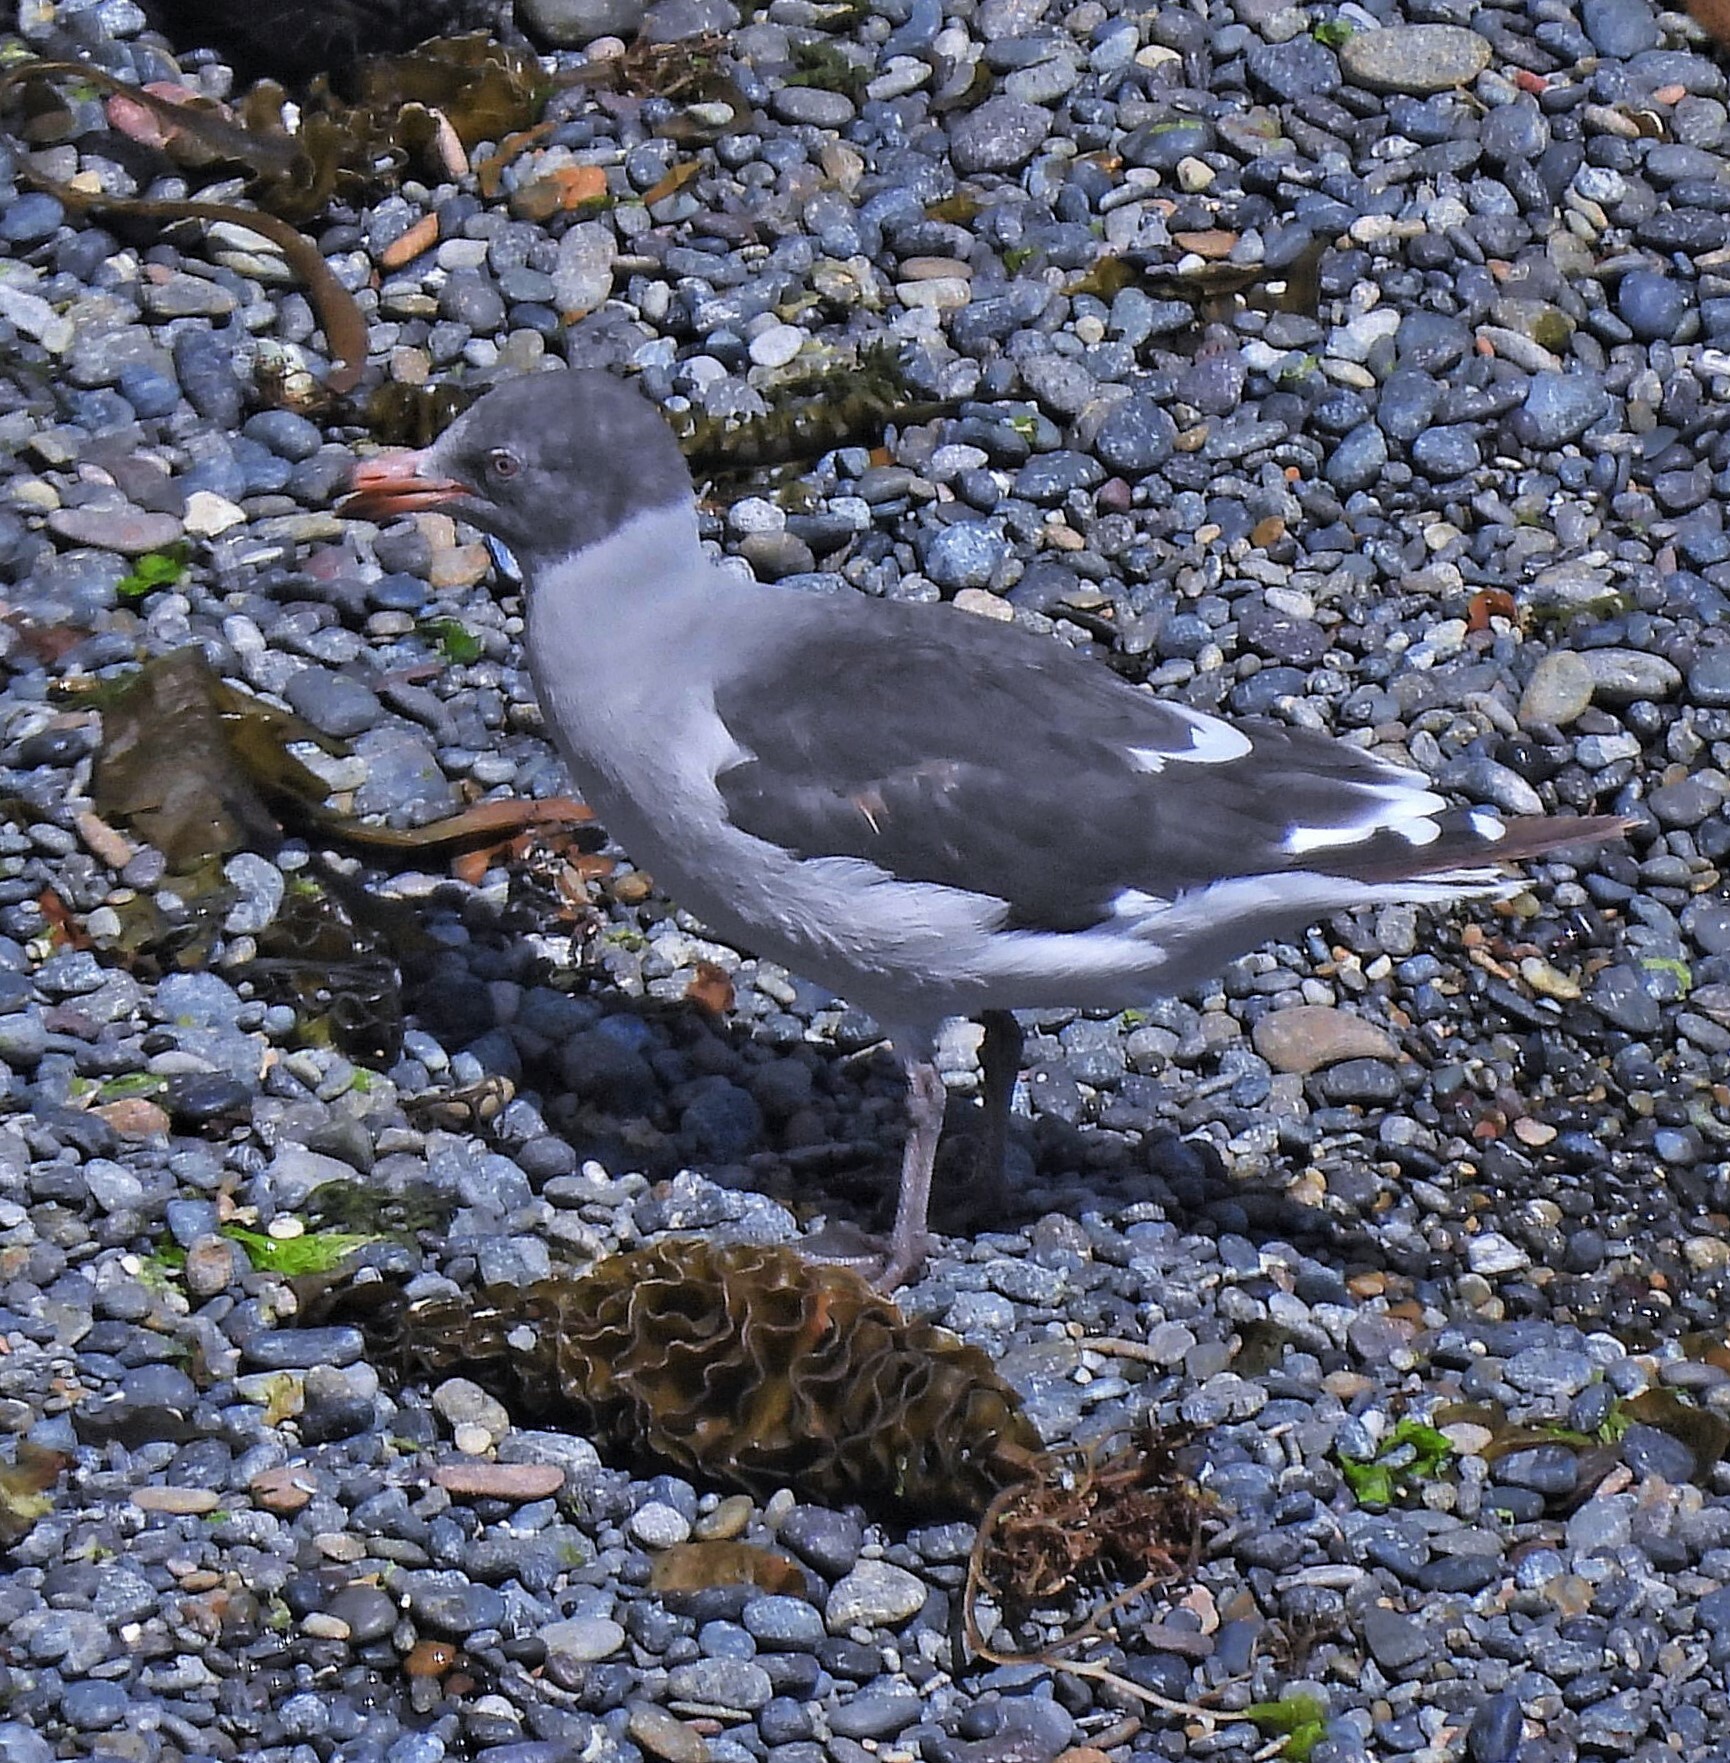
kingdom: Animalia
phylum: Chordata
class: Aves
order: Charadriiformes
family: Laridae
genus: Leucophaeus
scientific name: Leucophaeus scoresbii
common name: Dolphin gull
